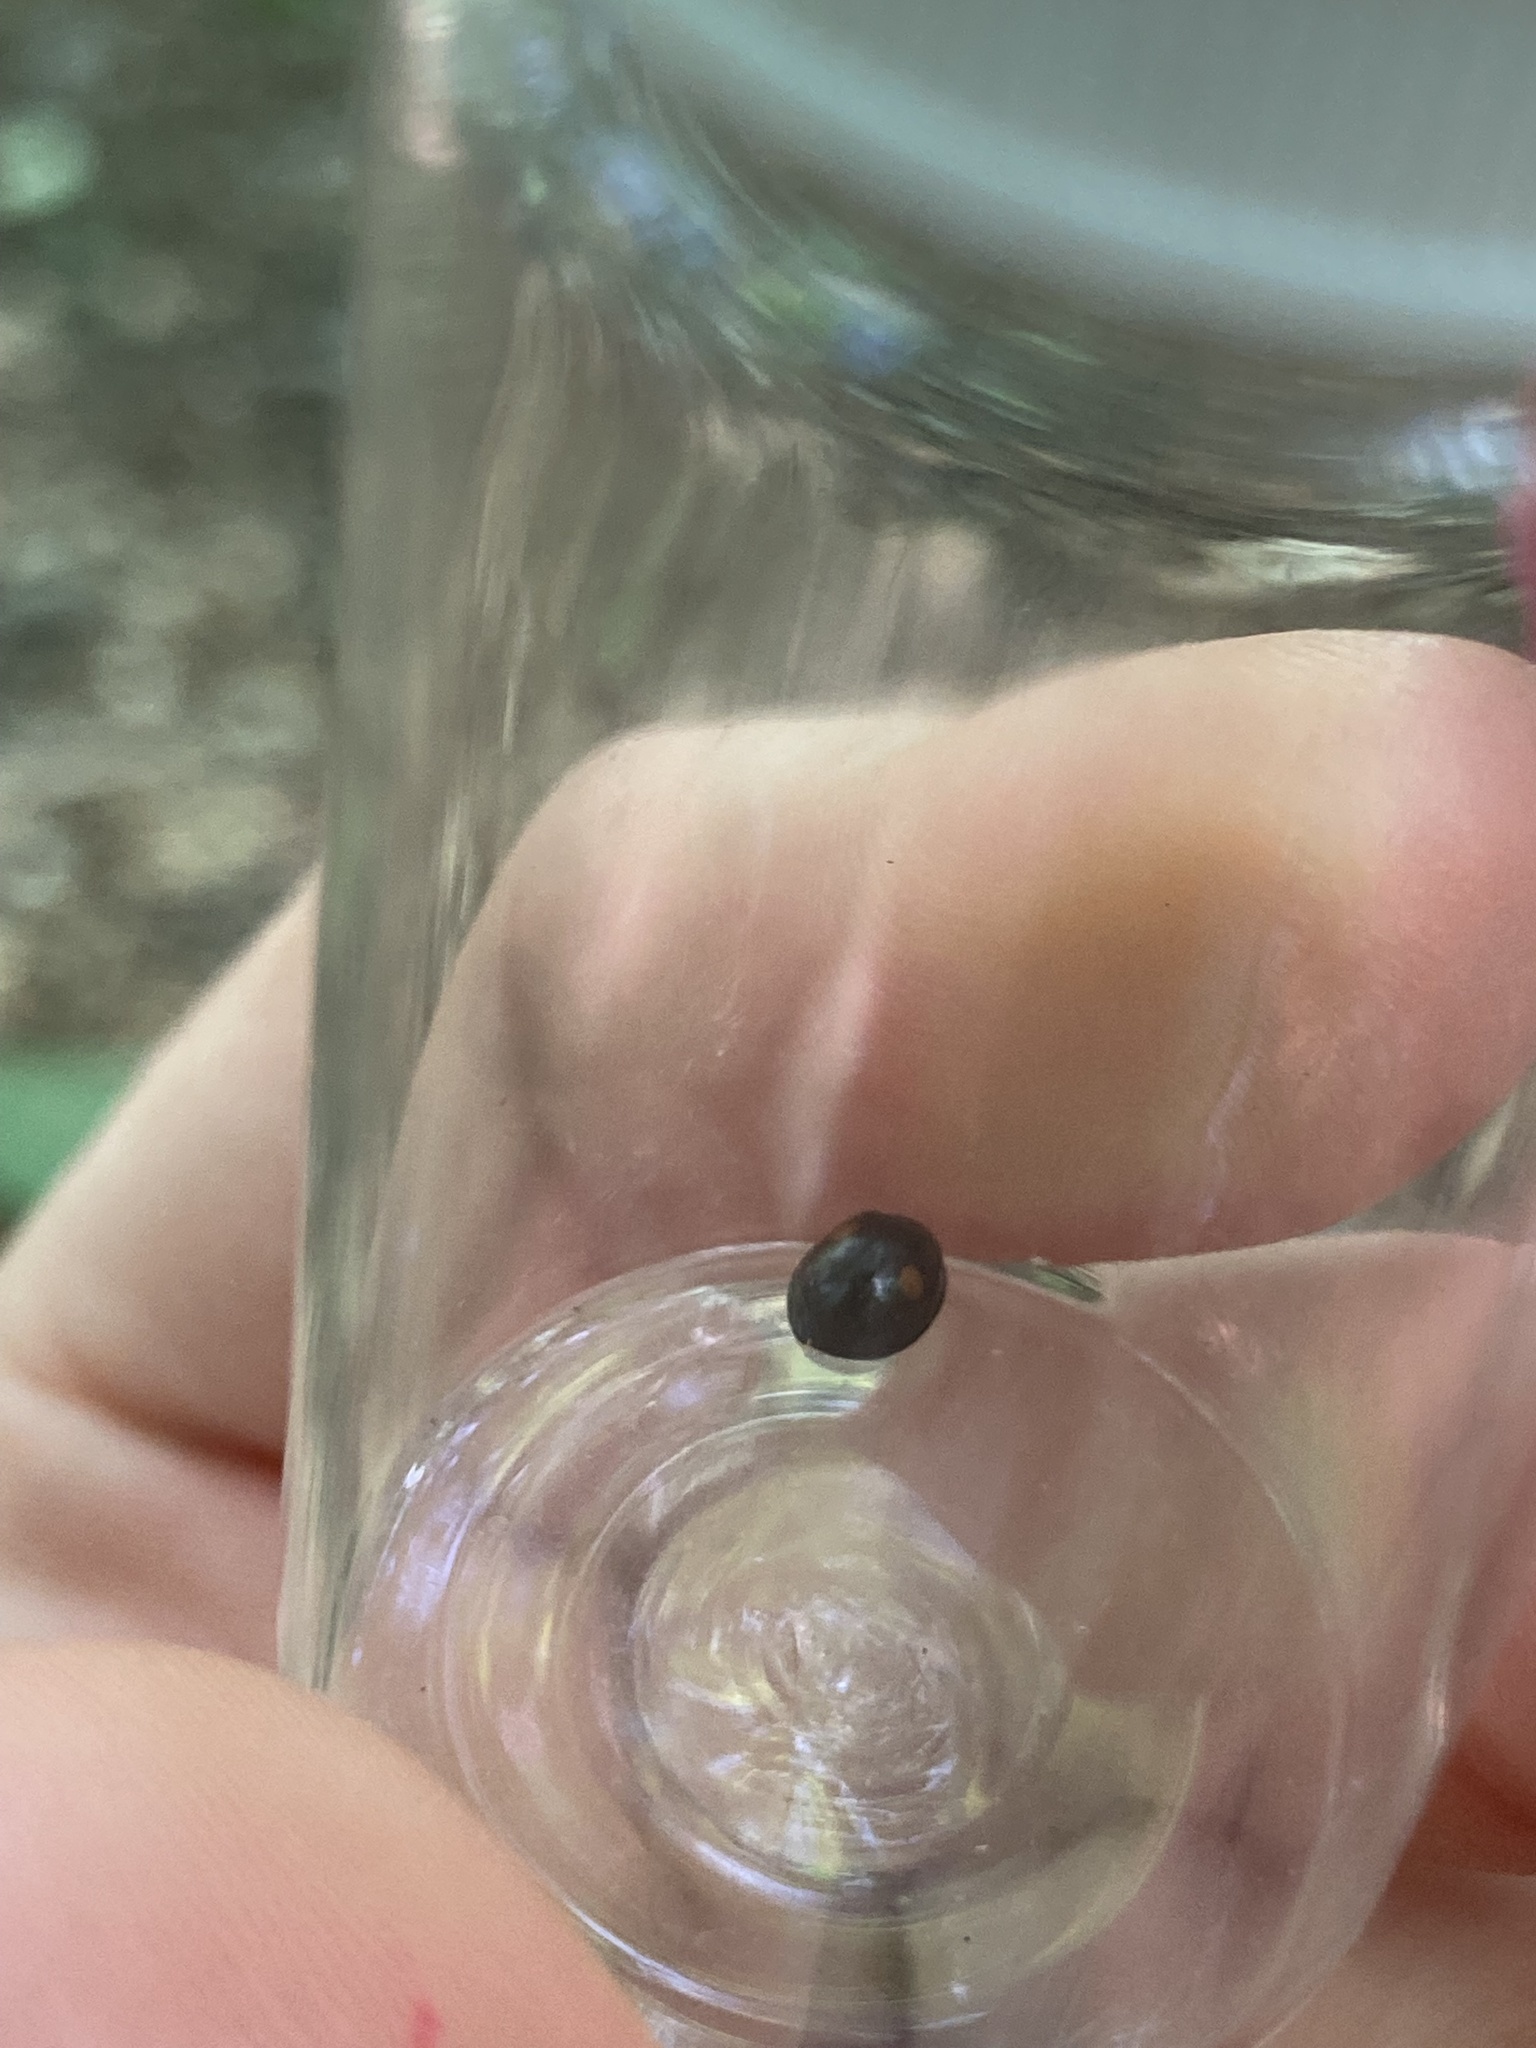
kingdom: Animalia
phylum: Arthropoda
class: Insecta
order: Coleoptera
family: Coccinellidae
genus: Chilocorus
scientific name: Chilocorus stigma
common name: Twicestabbed lady beetle
